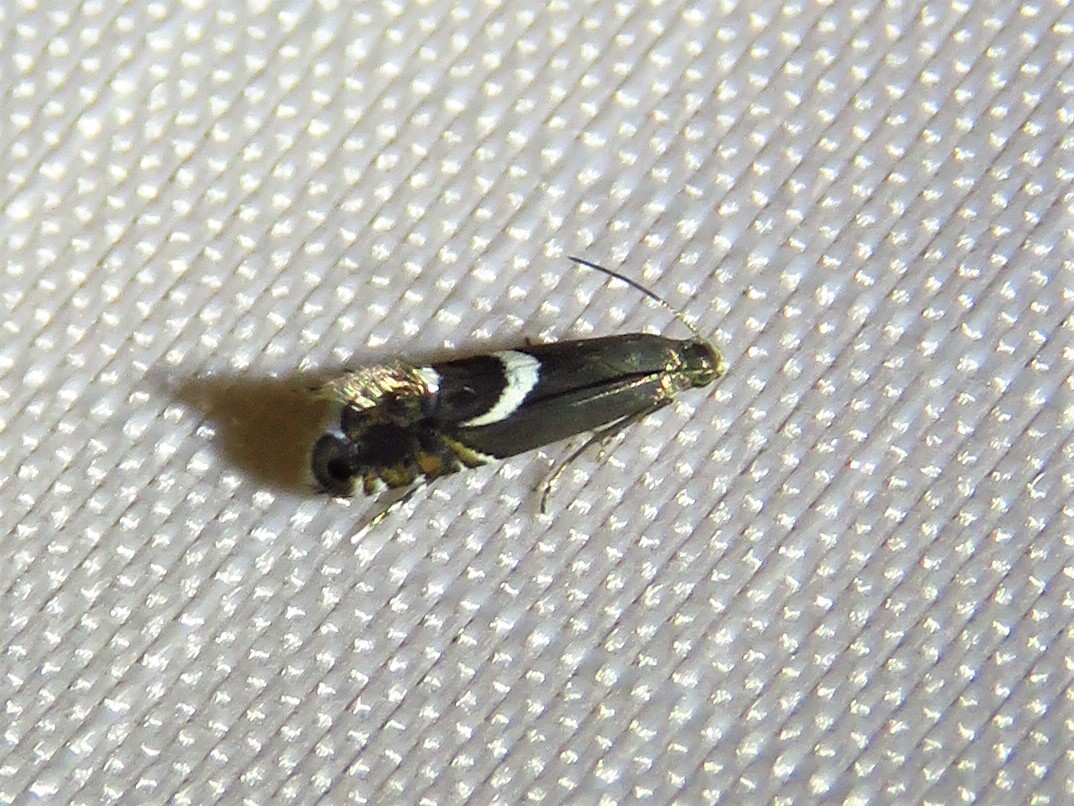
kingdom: Animalia
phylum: Arthropoda
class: Insecta
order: Lepidoptera
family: Glyphipterigidae
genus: Glyphipterix
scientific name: Glyphipterix Diploschizia impigritella
